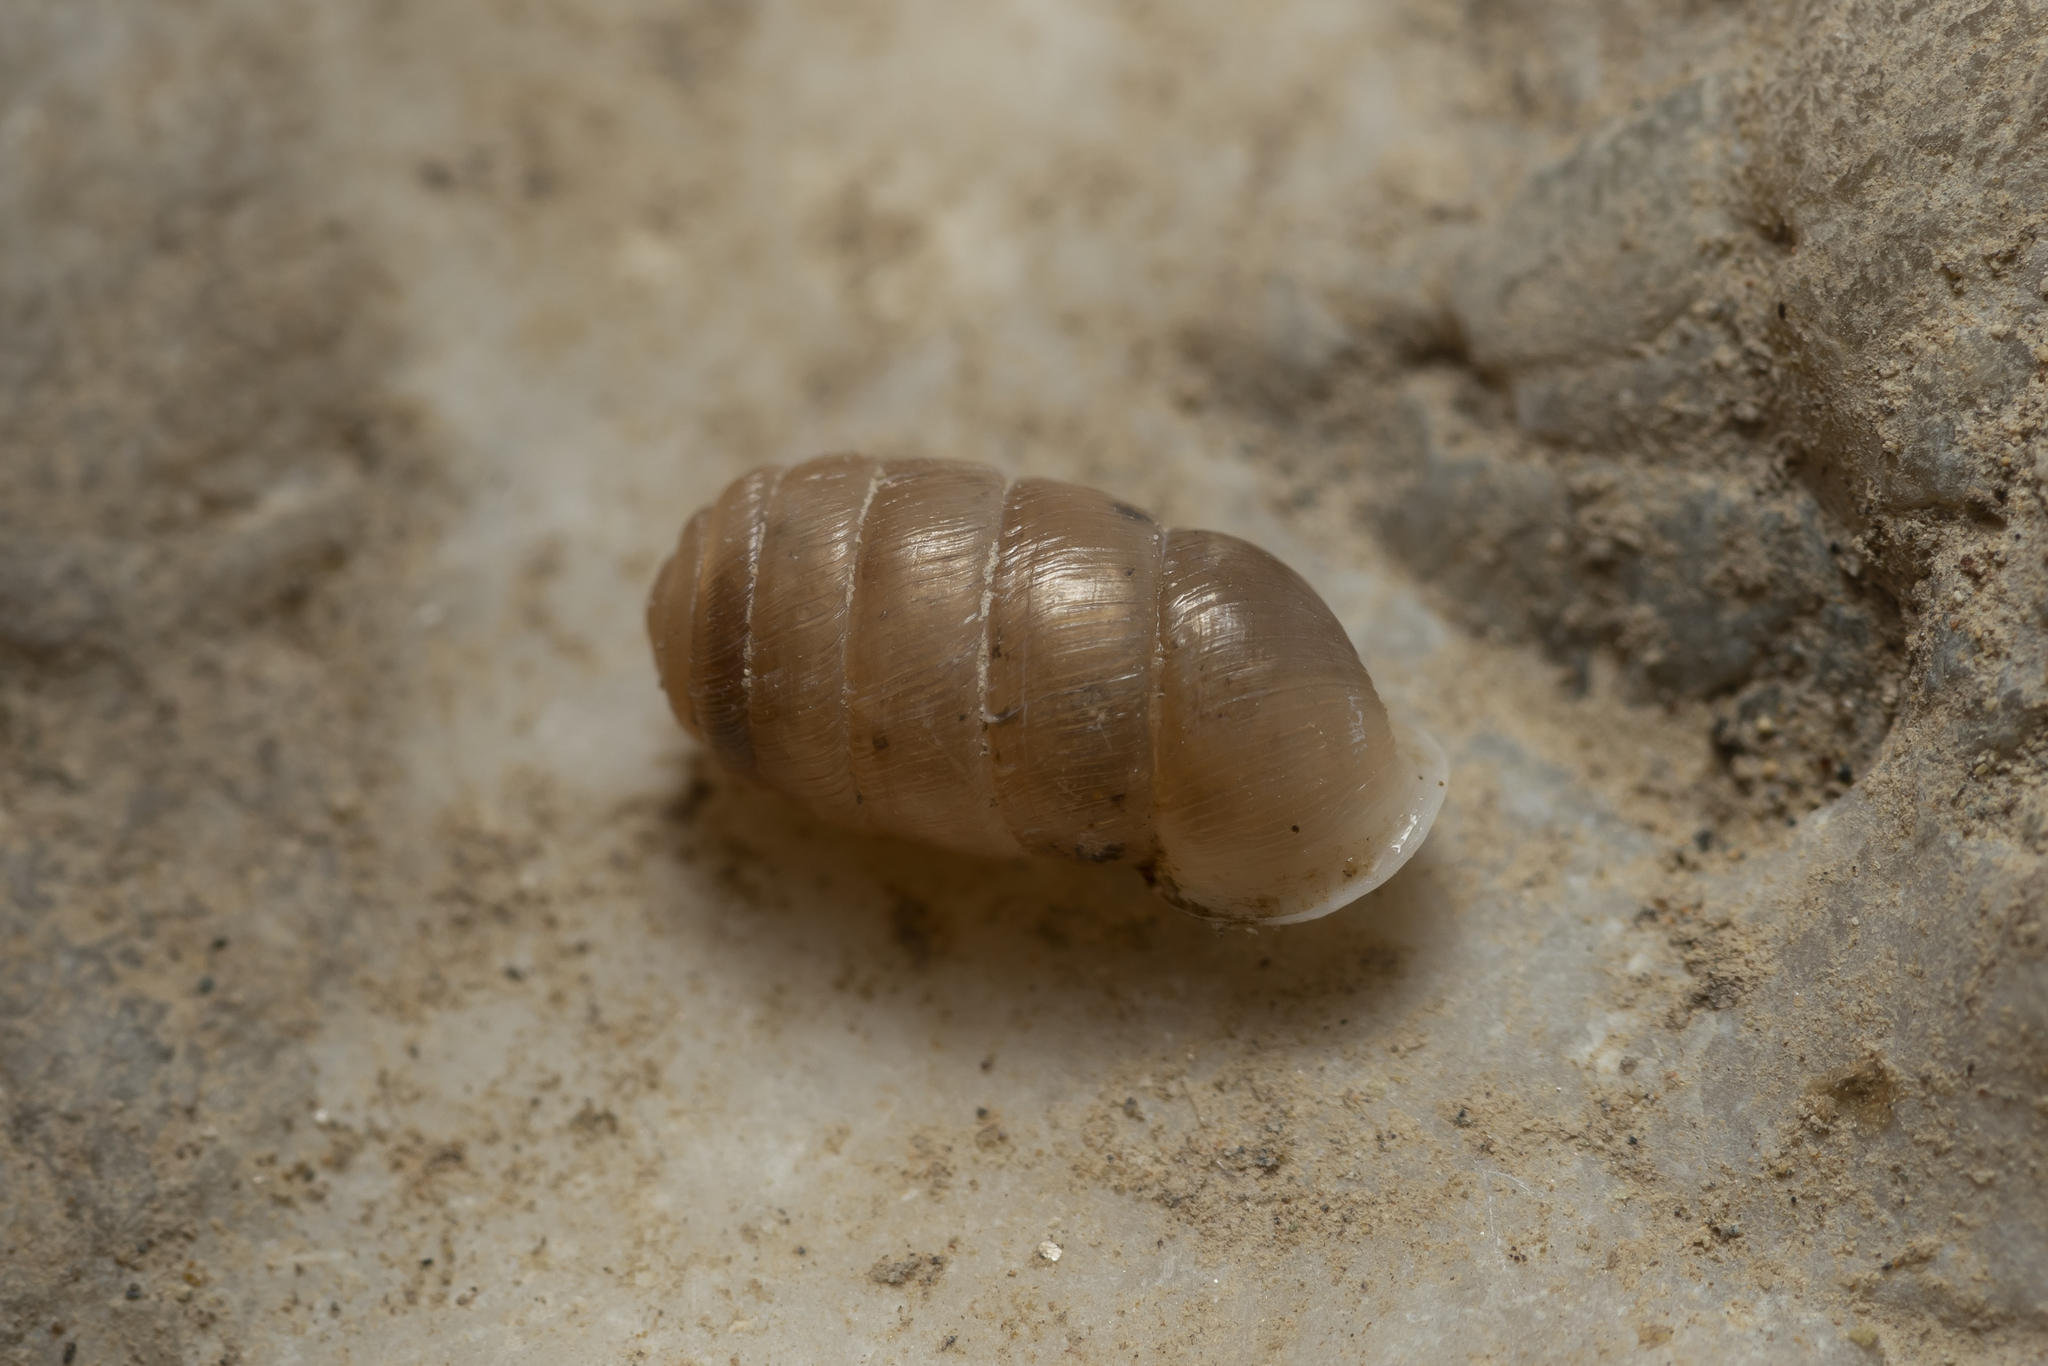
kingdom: Animalia
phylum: Mollusca
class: Gastropoda
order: Stylommatophora
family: Orculidae
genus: Orculella
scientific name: Orculella ignorata
